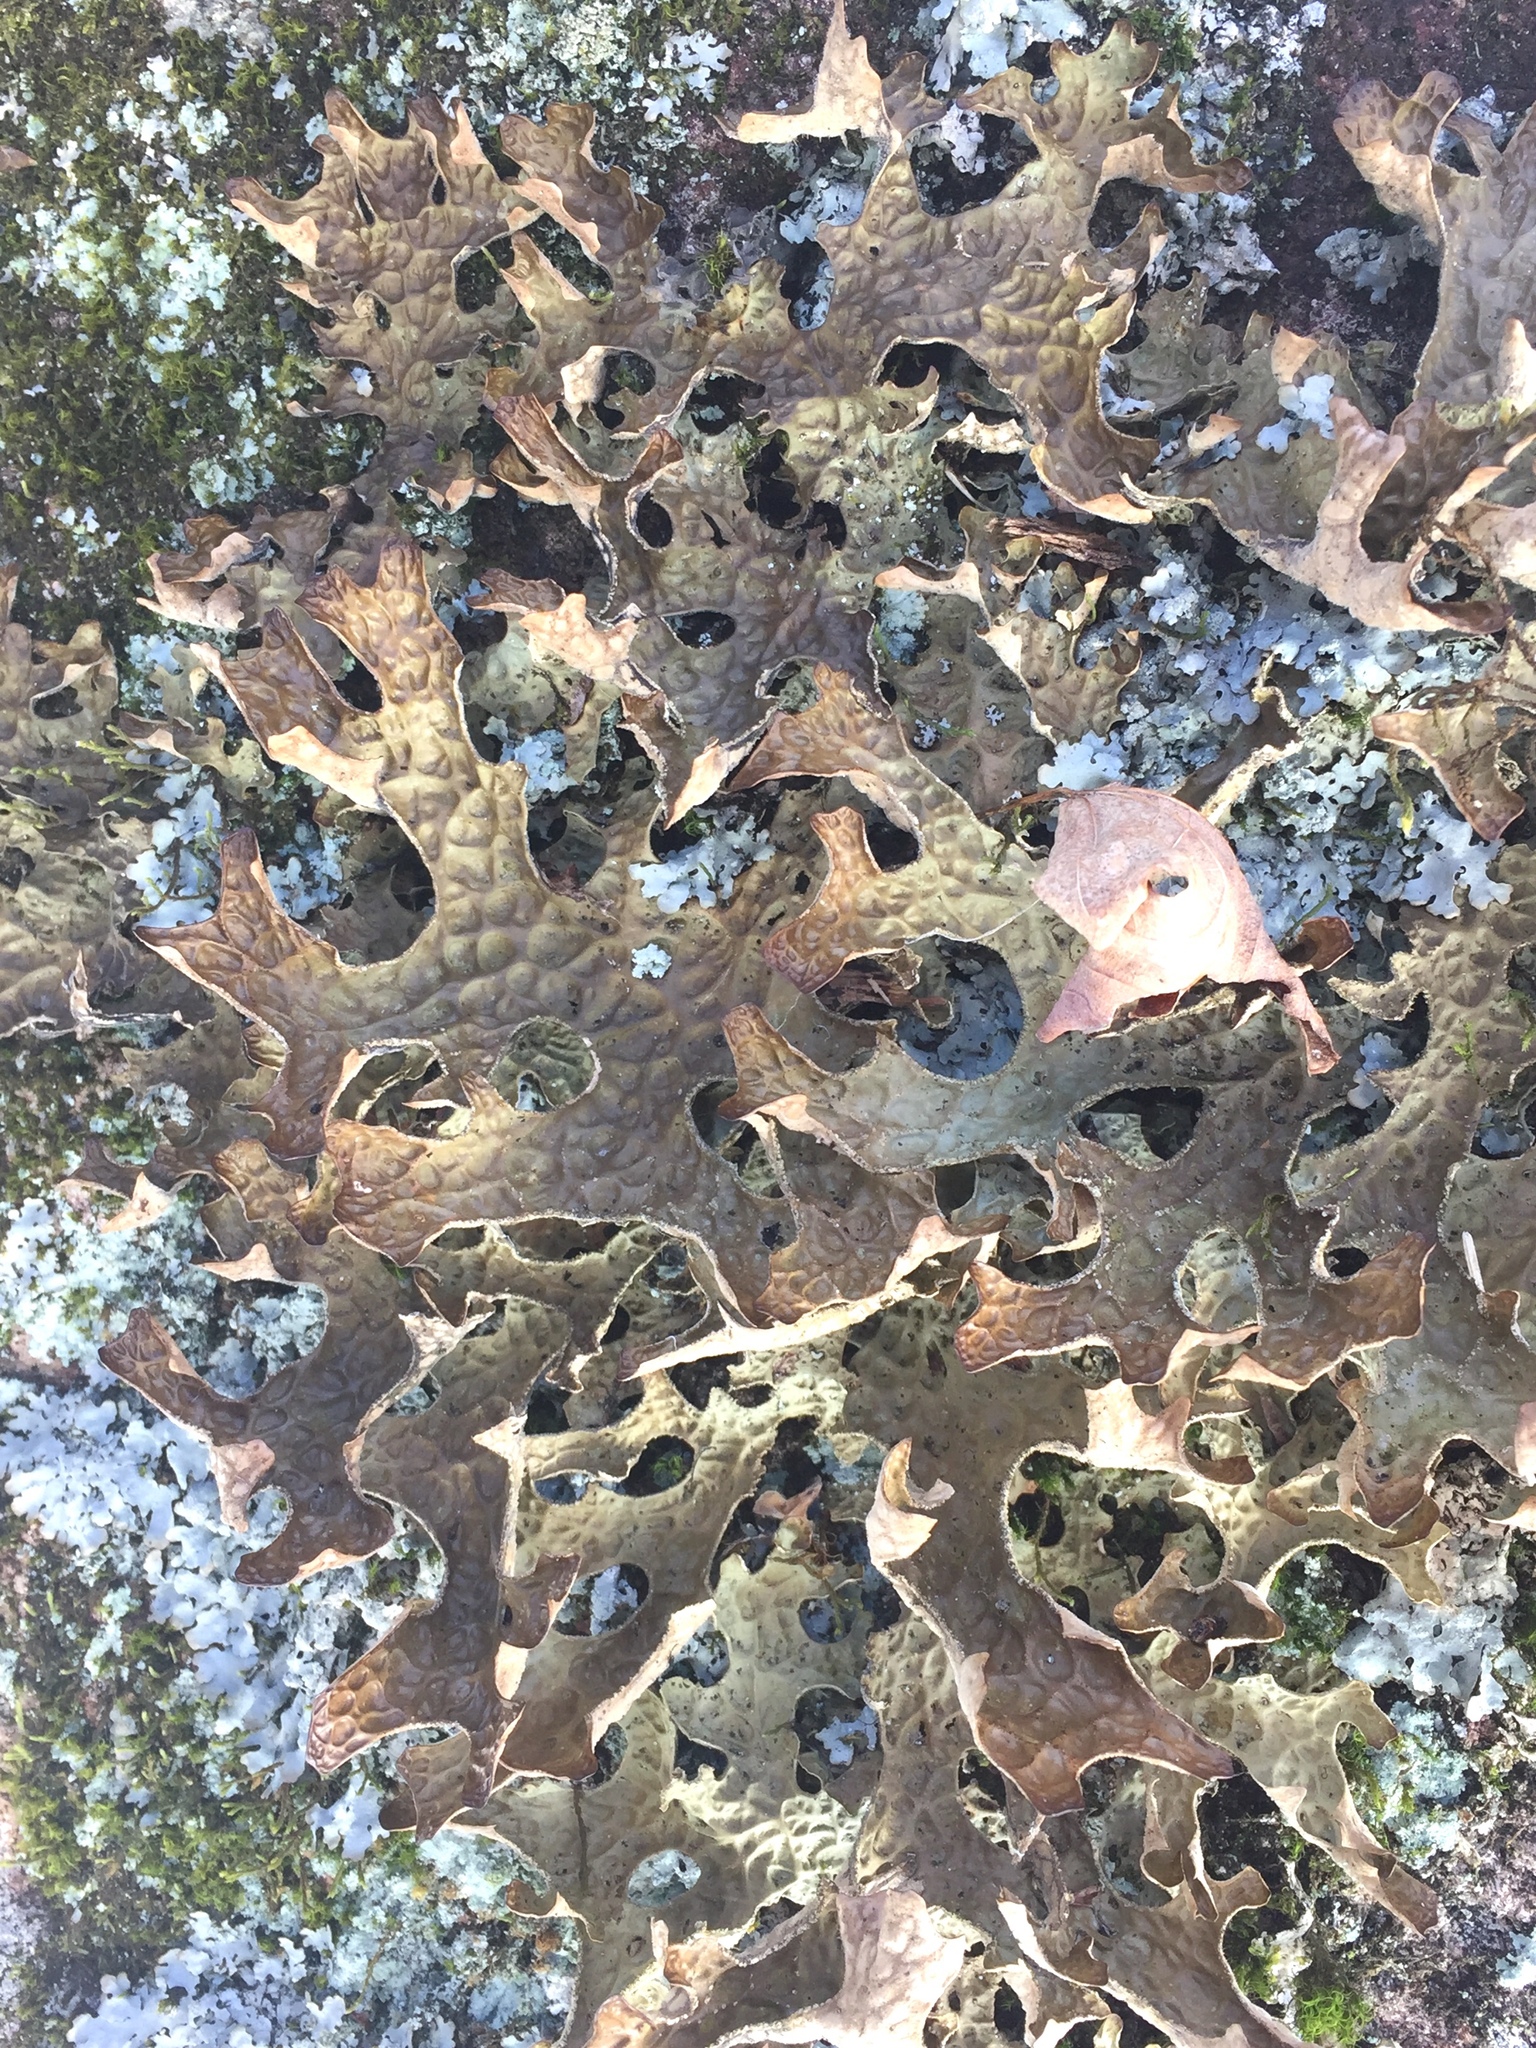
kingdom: Fungi
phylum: Ascomycota
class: Lecanoromycetes
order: Peltigerales
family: Lobariaceae
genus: Lobaria
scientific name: Lobaria pulmonaria
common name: Lungwort
